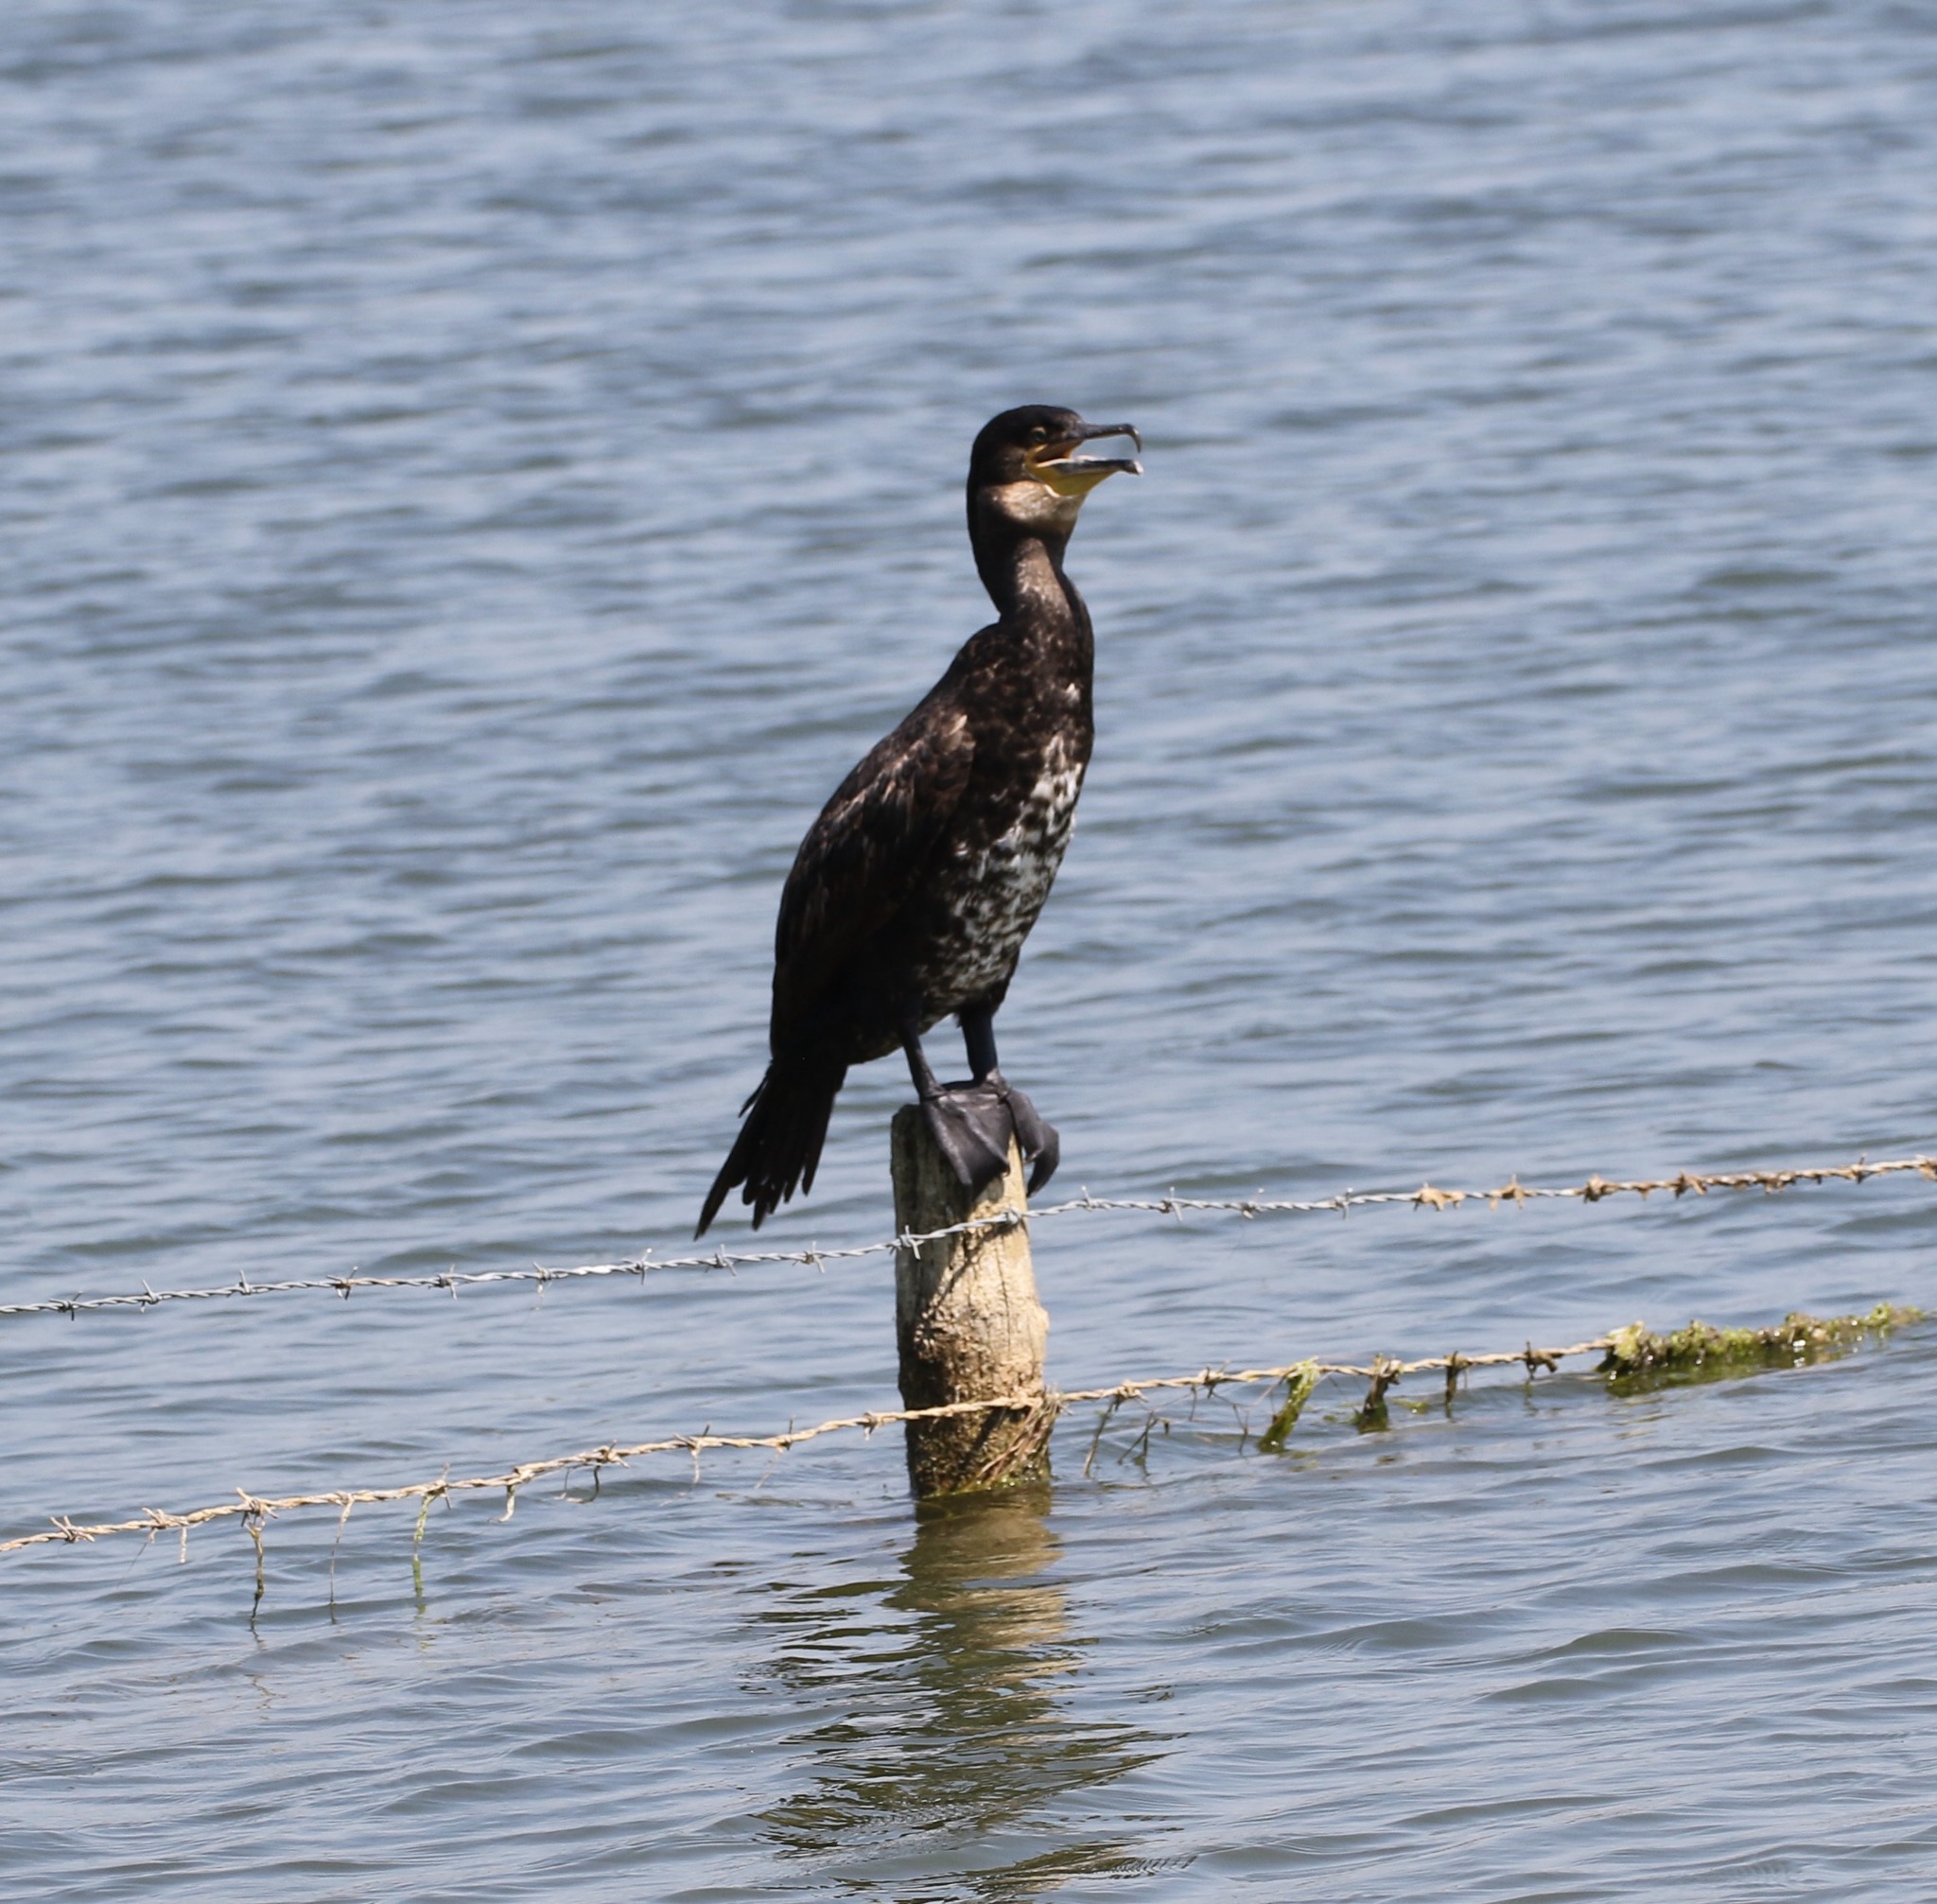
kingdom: Animalia
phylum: Chordata
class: Aves
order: Suliformes
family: Phalacrocoracidae
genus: Phalacrocorax
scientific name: Phalacrocorax carbo
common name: Great cormorant
